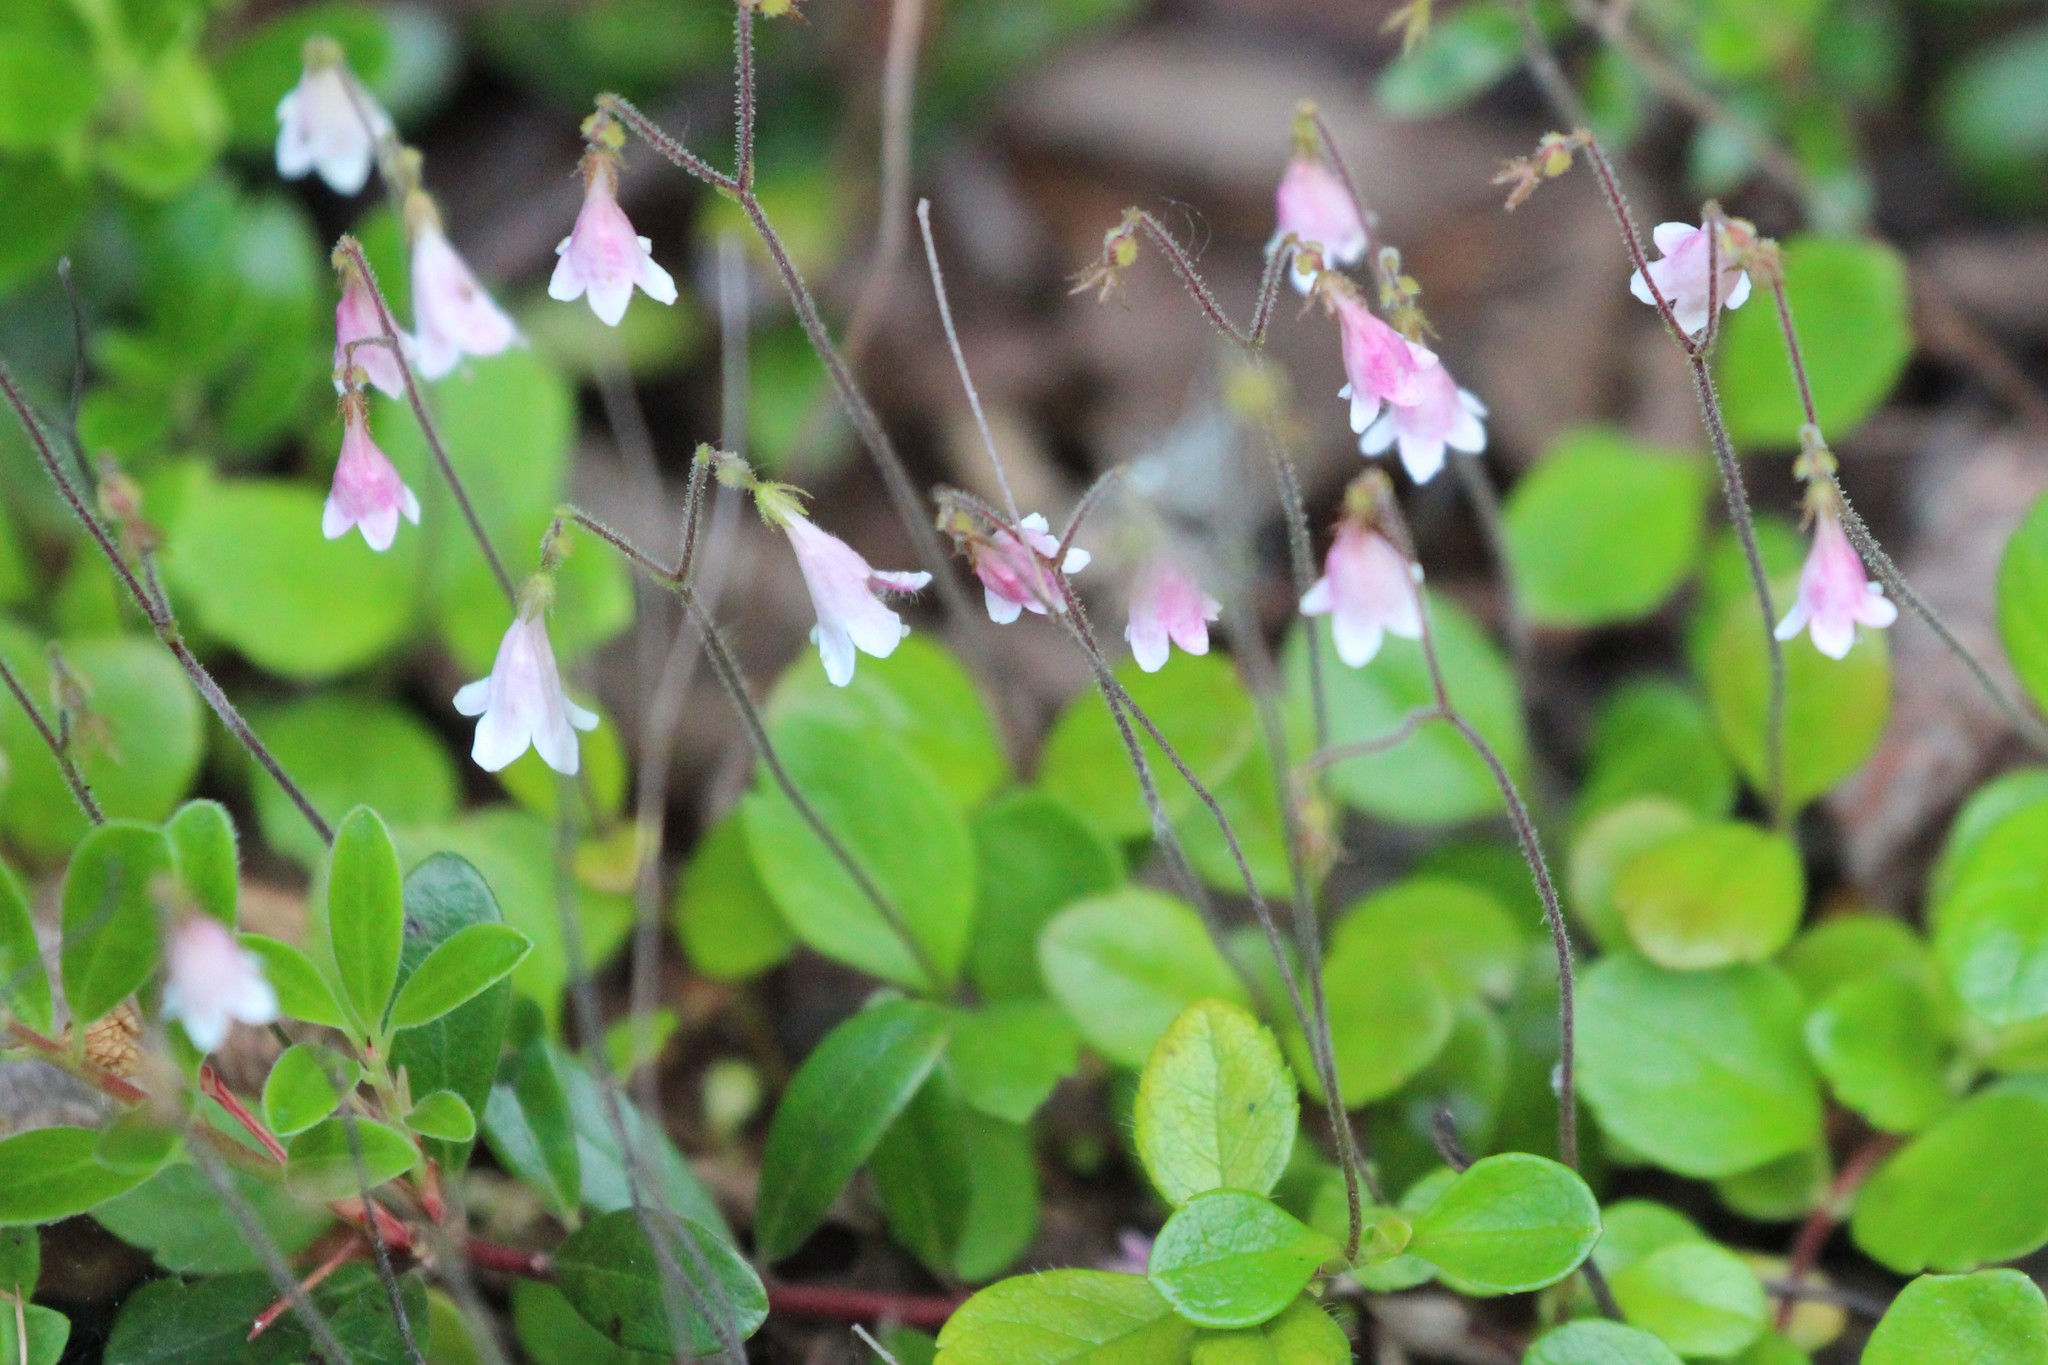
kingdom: Plantae
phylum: Tracheophyta
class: Magnoliopsida
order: Dipsacales
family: Caprifoliaceae
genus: Linnaea
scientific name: Linnaea borealis
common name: Twinflower
